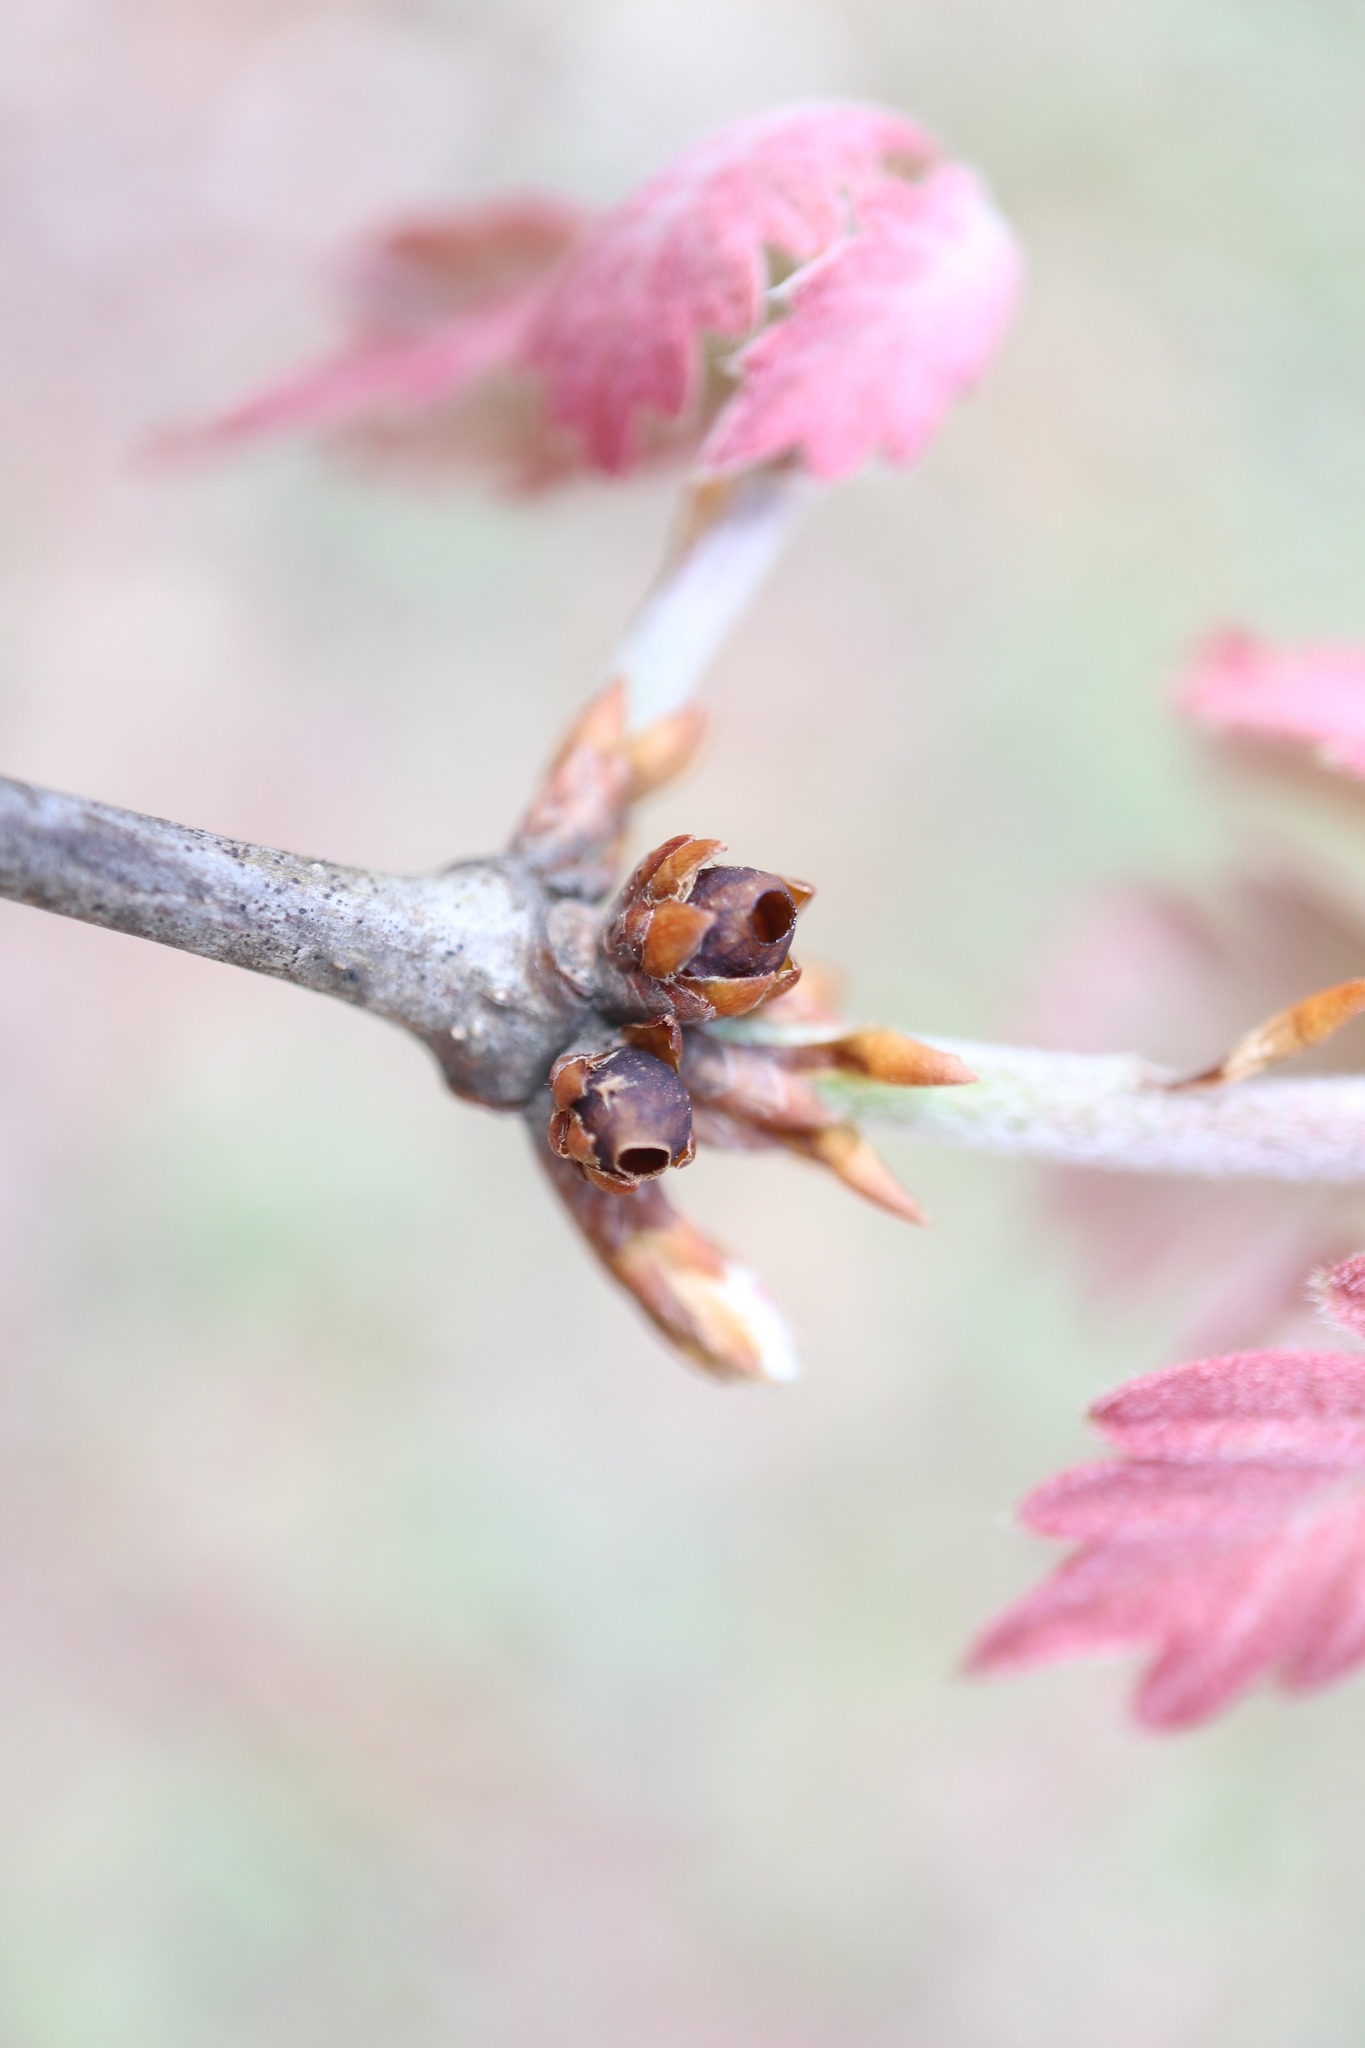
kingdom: Animalia
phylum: Arthropoda
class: Insecta
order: Hymenoptera
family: Cynipidae
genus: Neuroterus
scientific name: Neuroterus
